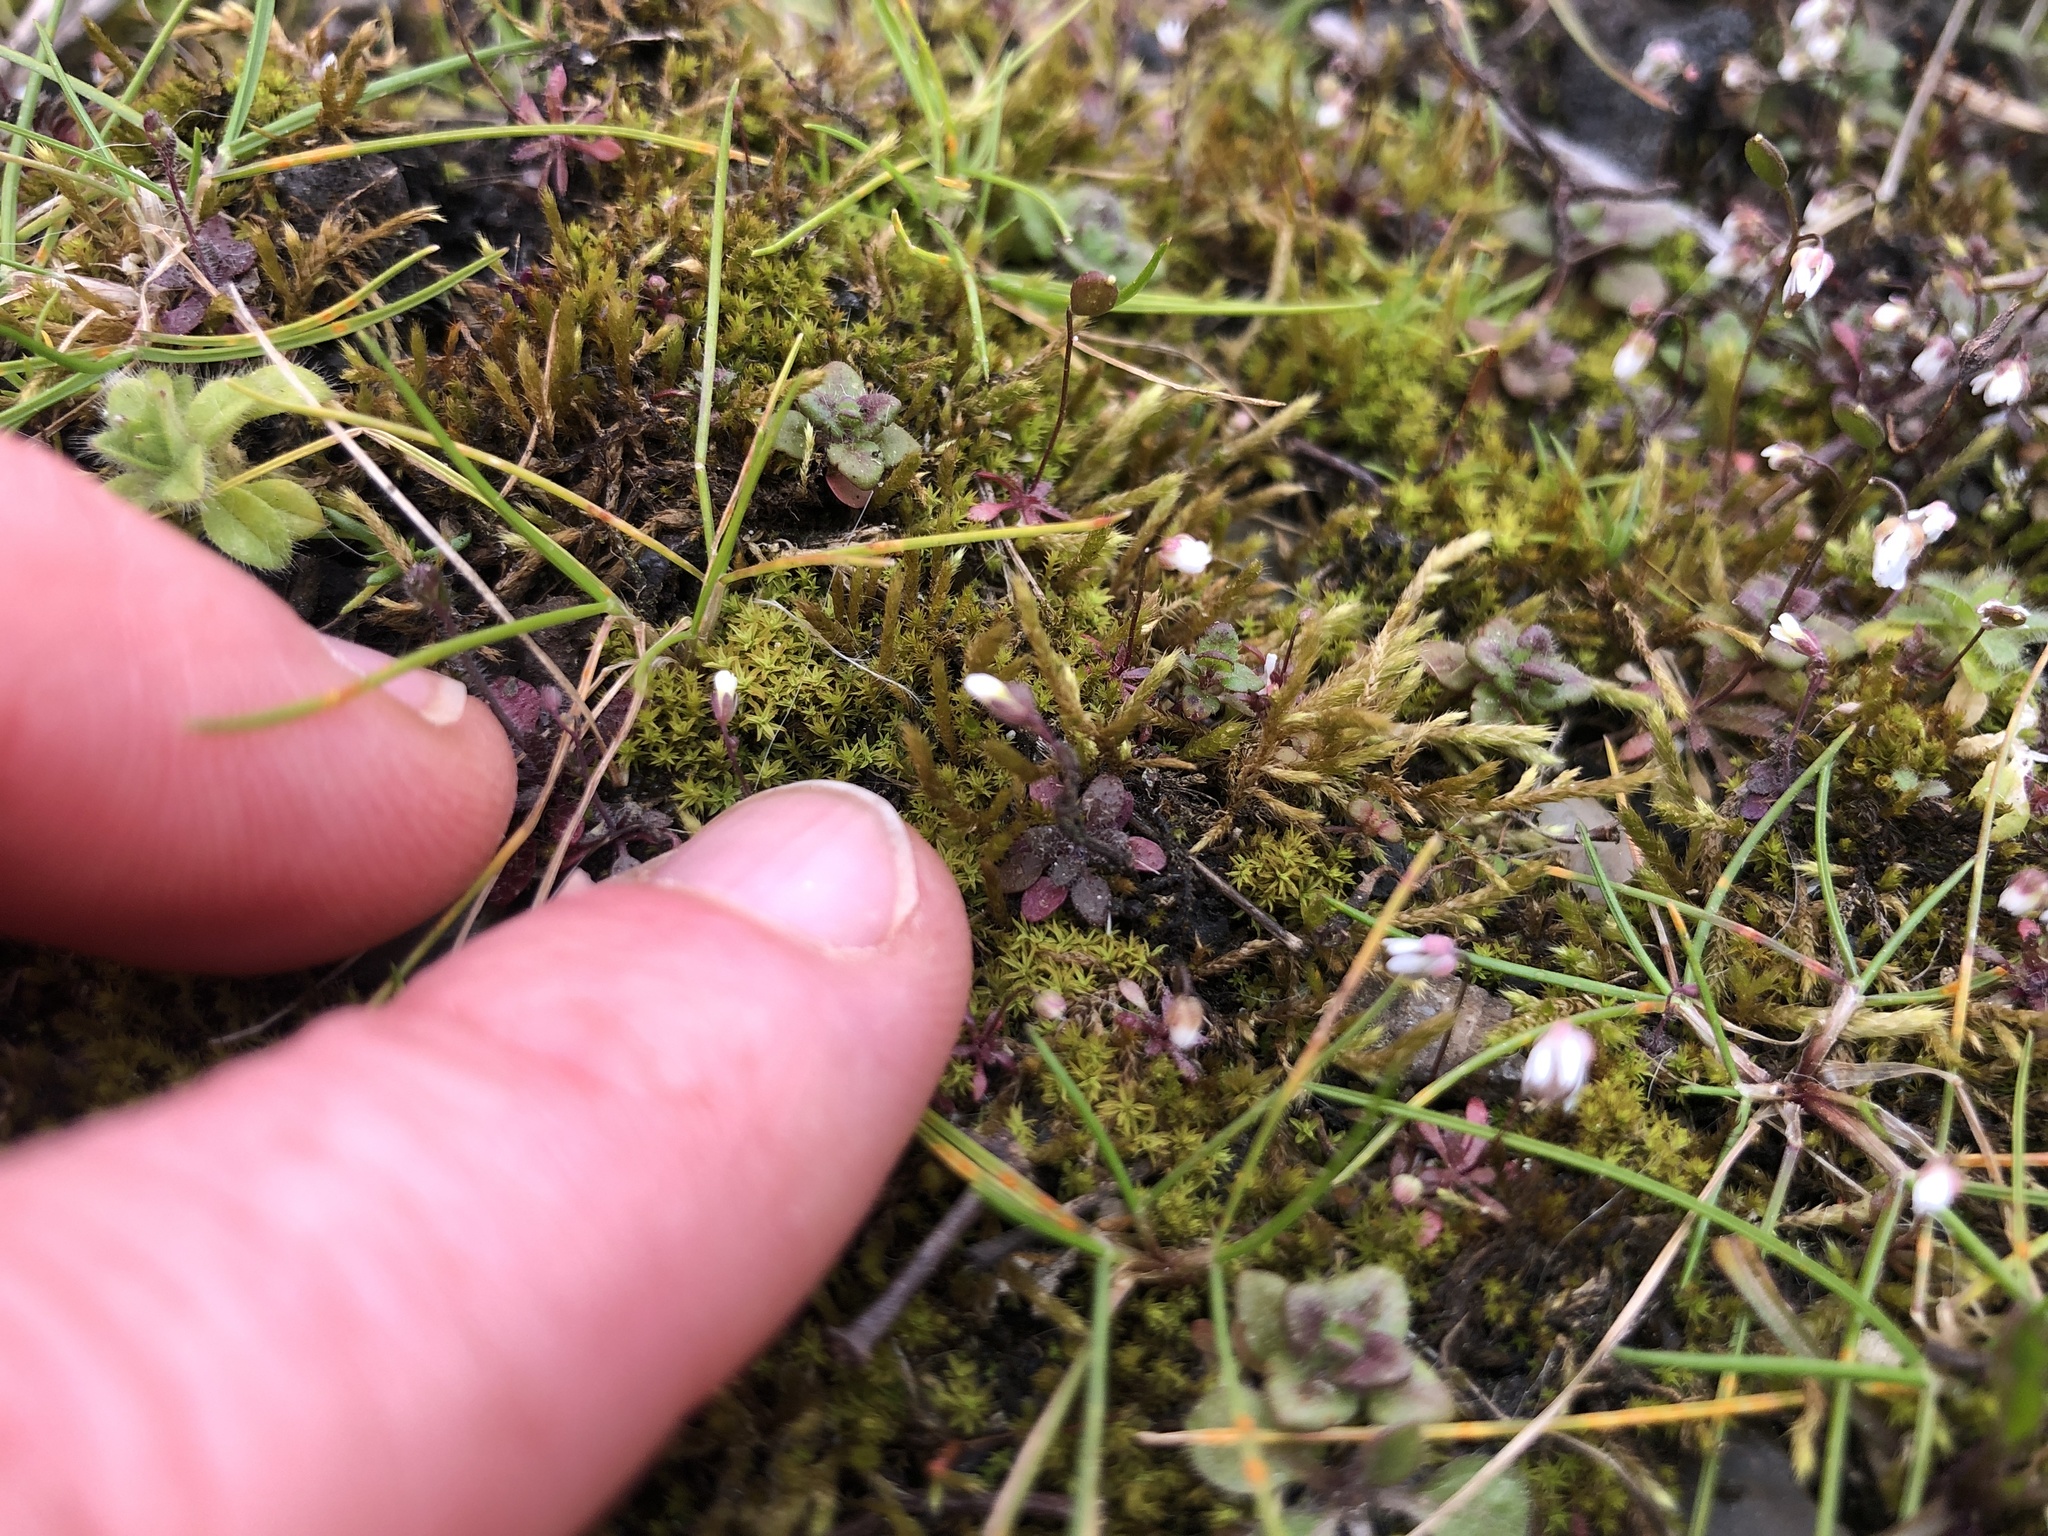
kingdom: Plantae
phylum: Tracheophyta
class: Magnoliopsida
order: Brassicales
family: Brassicaceae
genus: Draba
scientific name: Draba verna
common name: Spring draba
